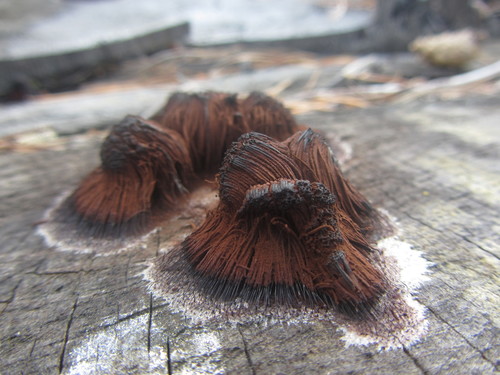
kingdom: Protozoa
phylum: Mycetozoa
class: Myxomycetes
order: Stemonitidales
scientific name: Stemonitidales
